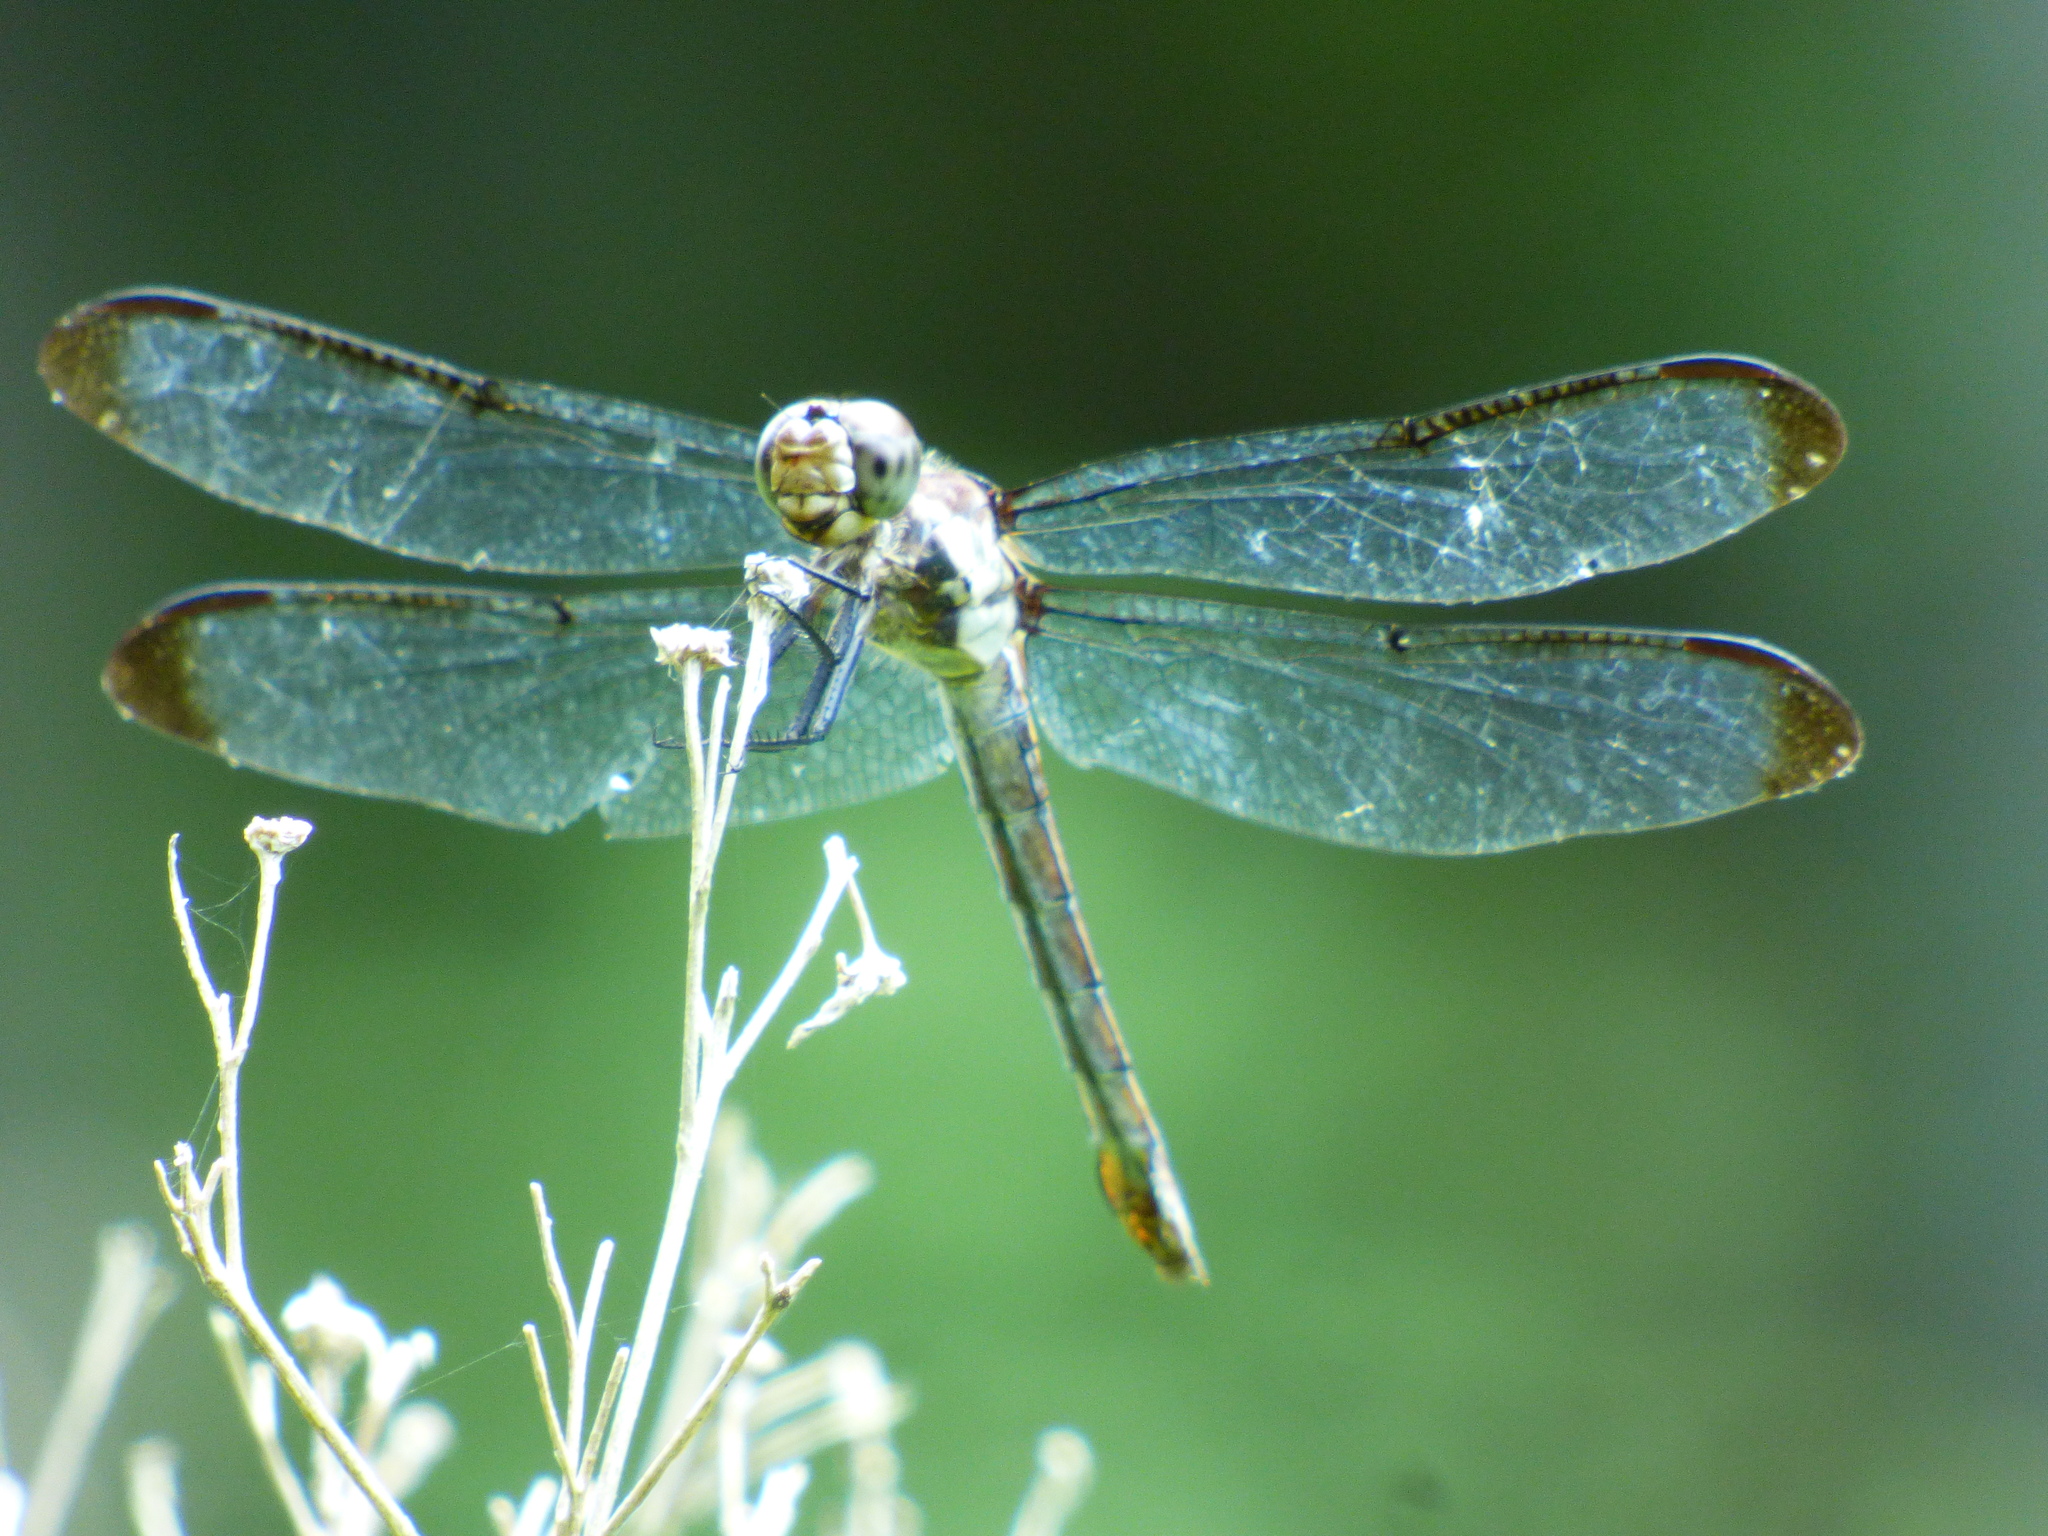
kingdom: Animalia
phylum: Arthropoda
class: Insecta
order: Odonata
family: Libellulidae
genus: Libellula
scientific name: Libellula vibrans
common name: Great blue skimmer
